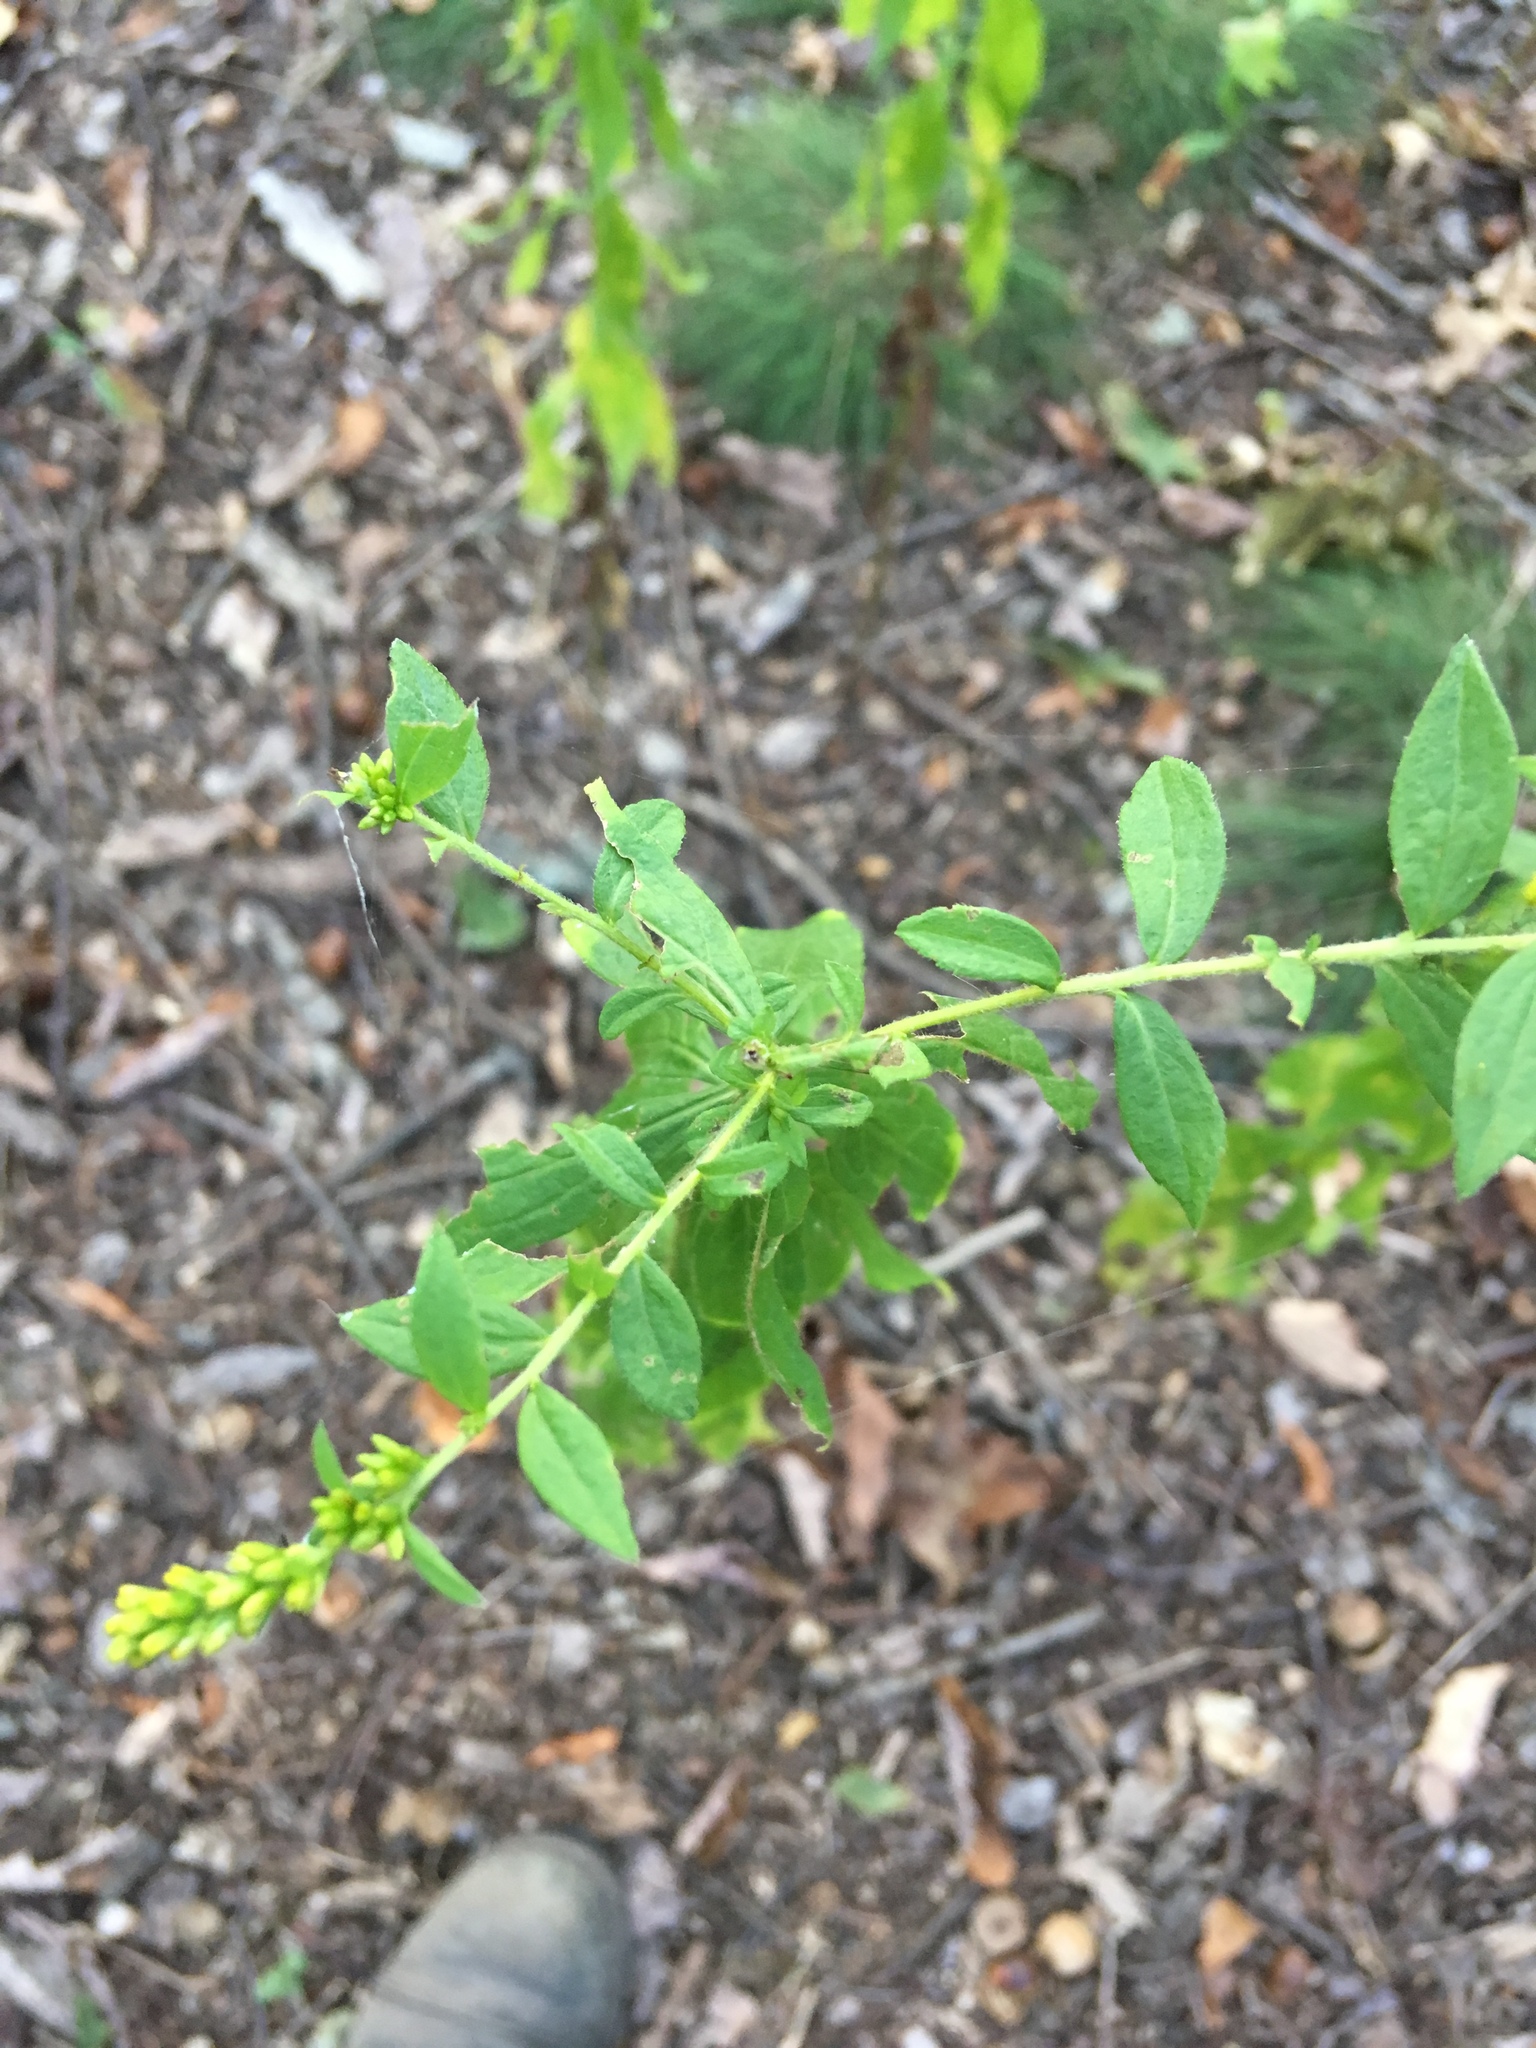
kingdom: Plantae
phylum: Tracheophyta
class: Magnoliopsida
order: Asterales
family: Asteraceae
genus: Solidago
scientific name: Solidago rugosa
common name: Rough-stemmed goldenrod
